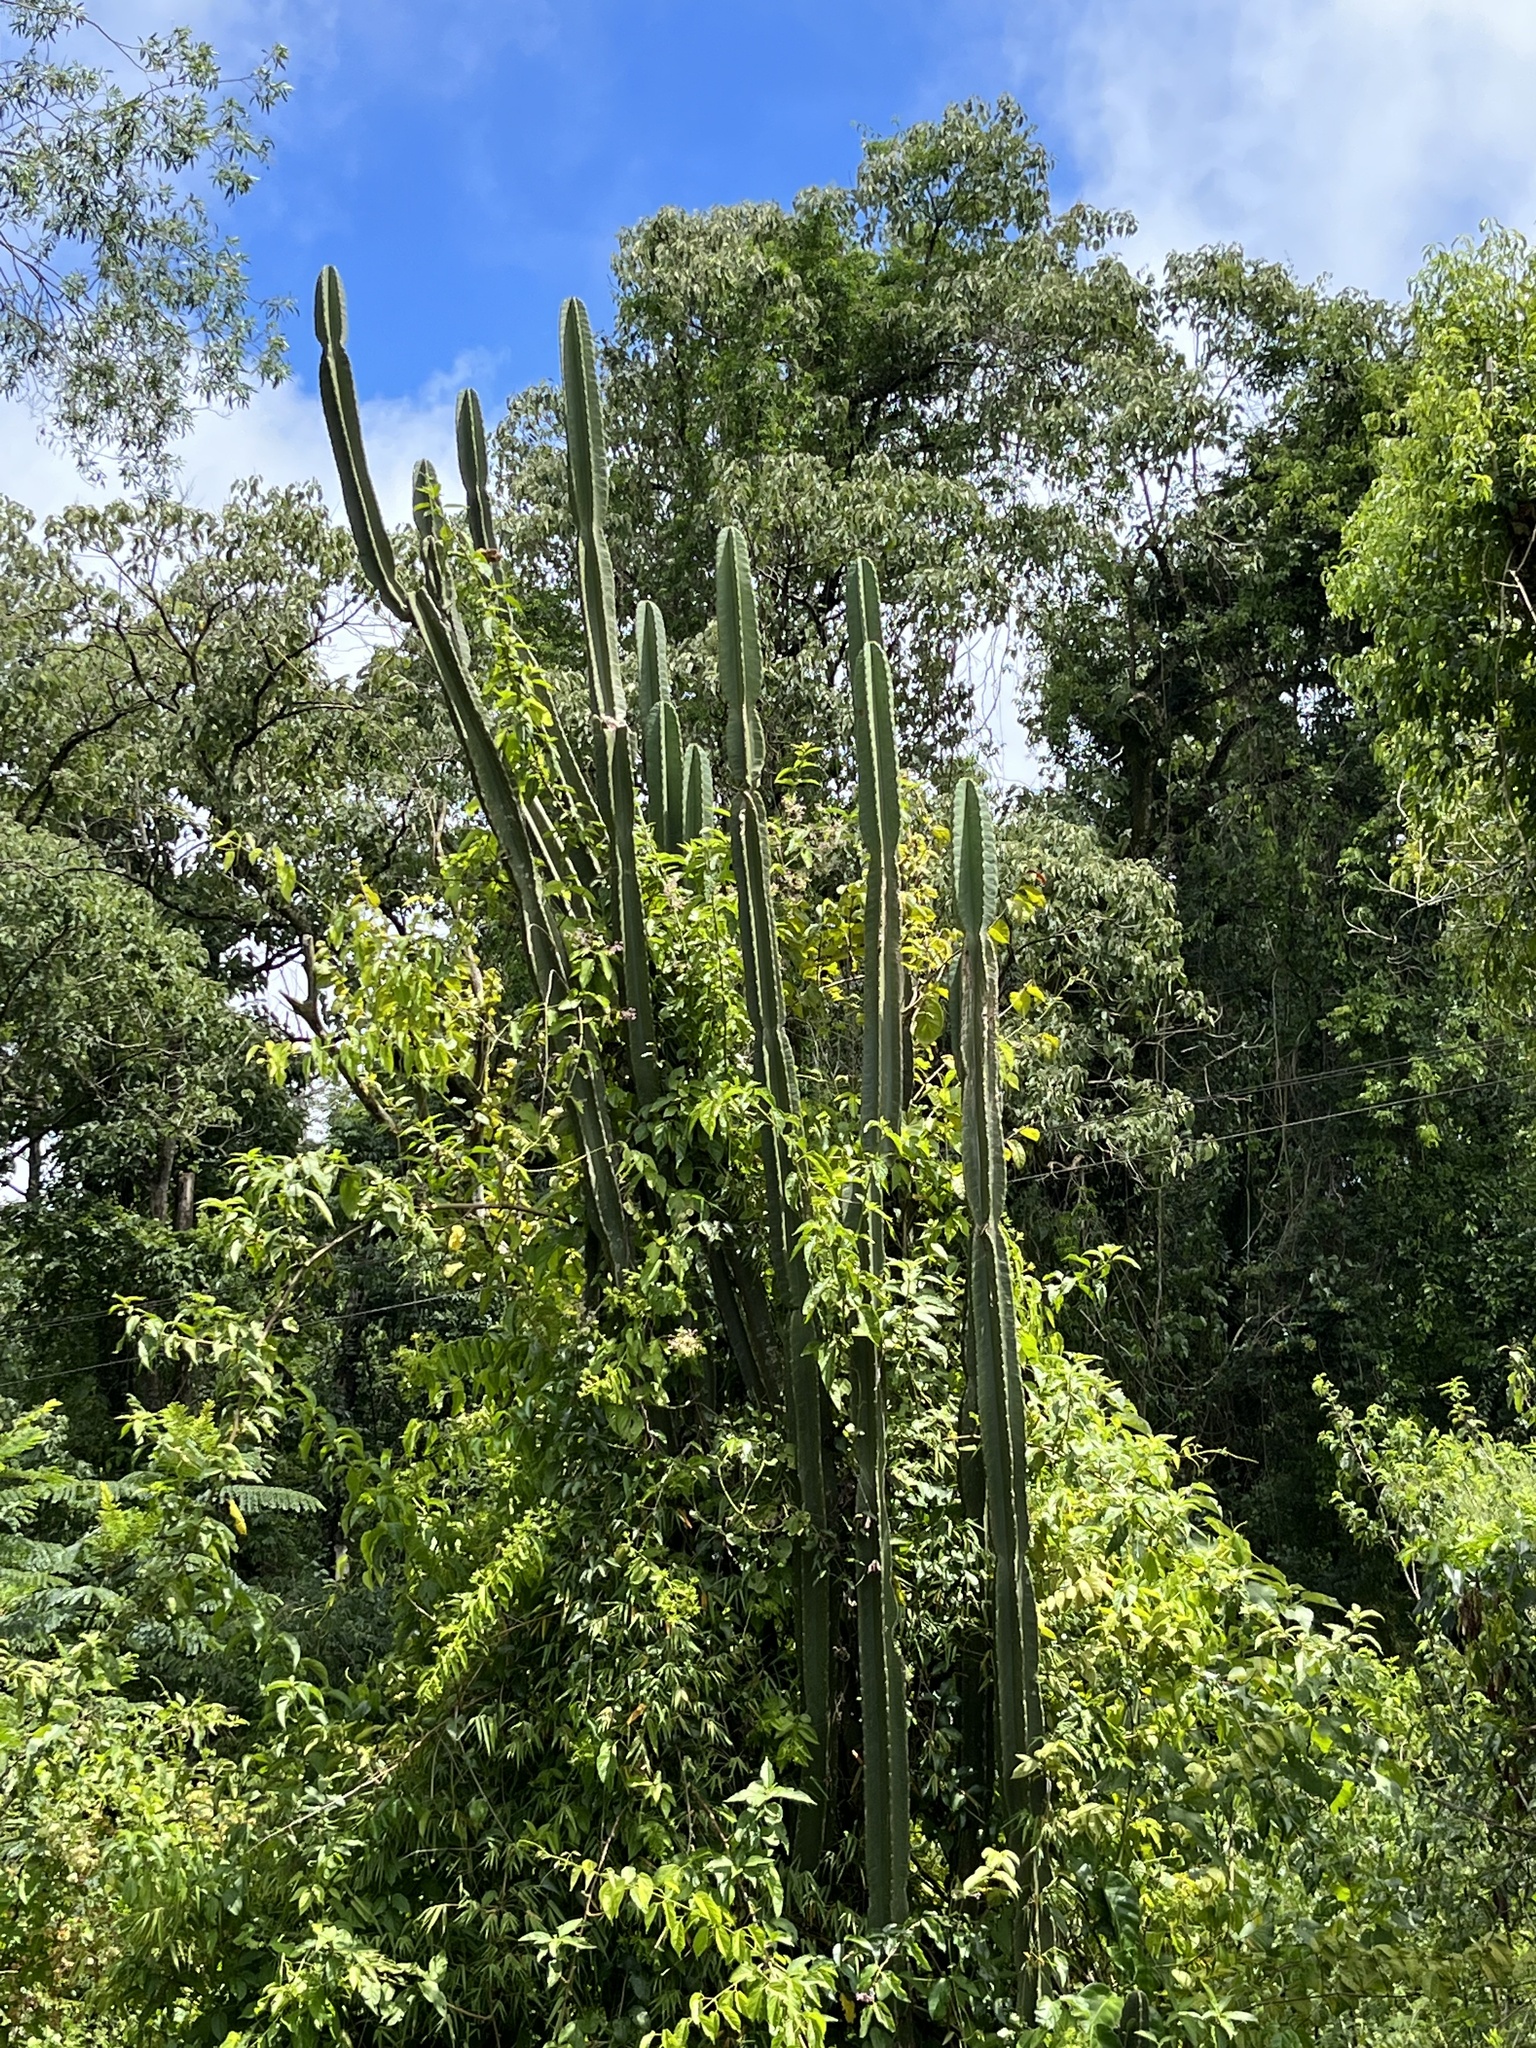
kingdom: Plantae
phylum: Tracheophyta
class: Magnoliopsida
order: Caryophyllales
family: Cactaceae
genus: Cereus
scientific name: Cereus hildmannianus
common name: Hedge cactus
